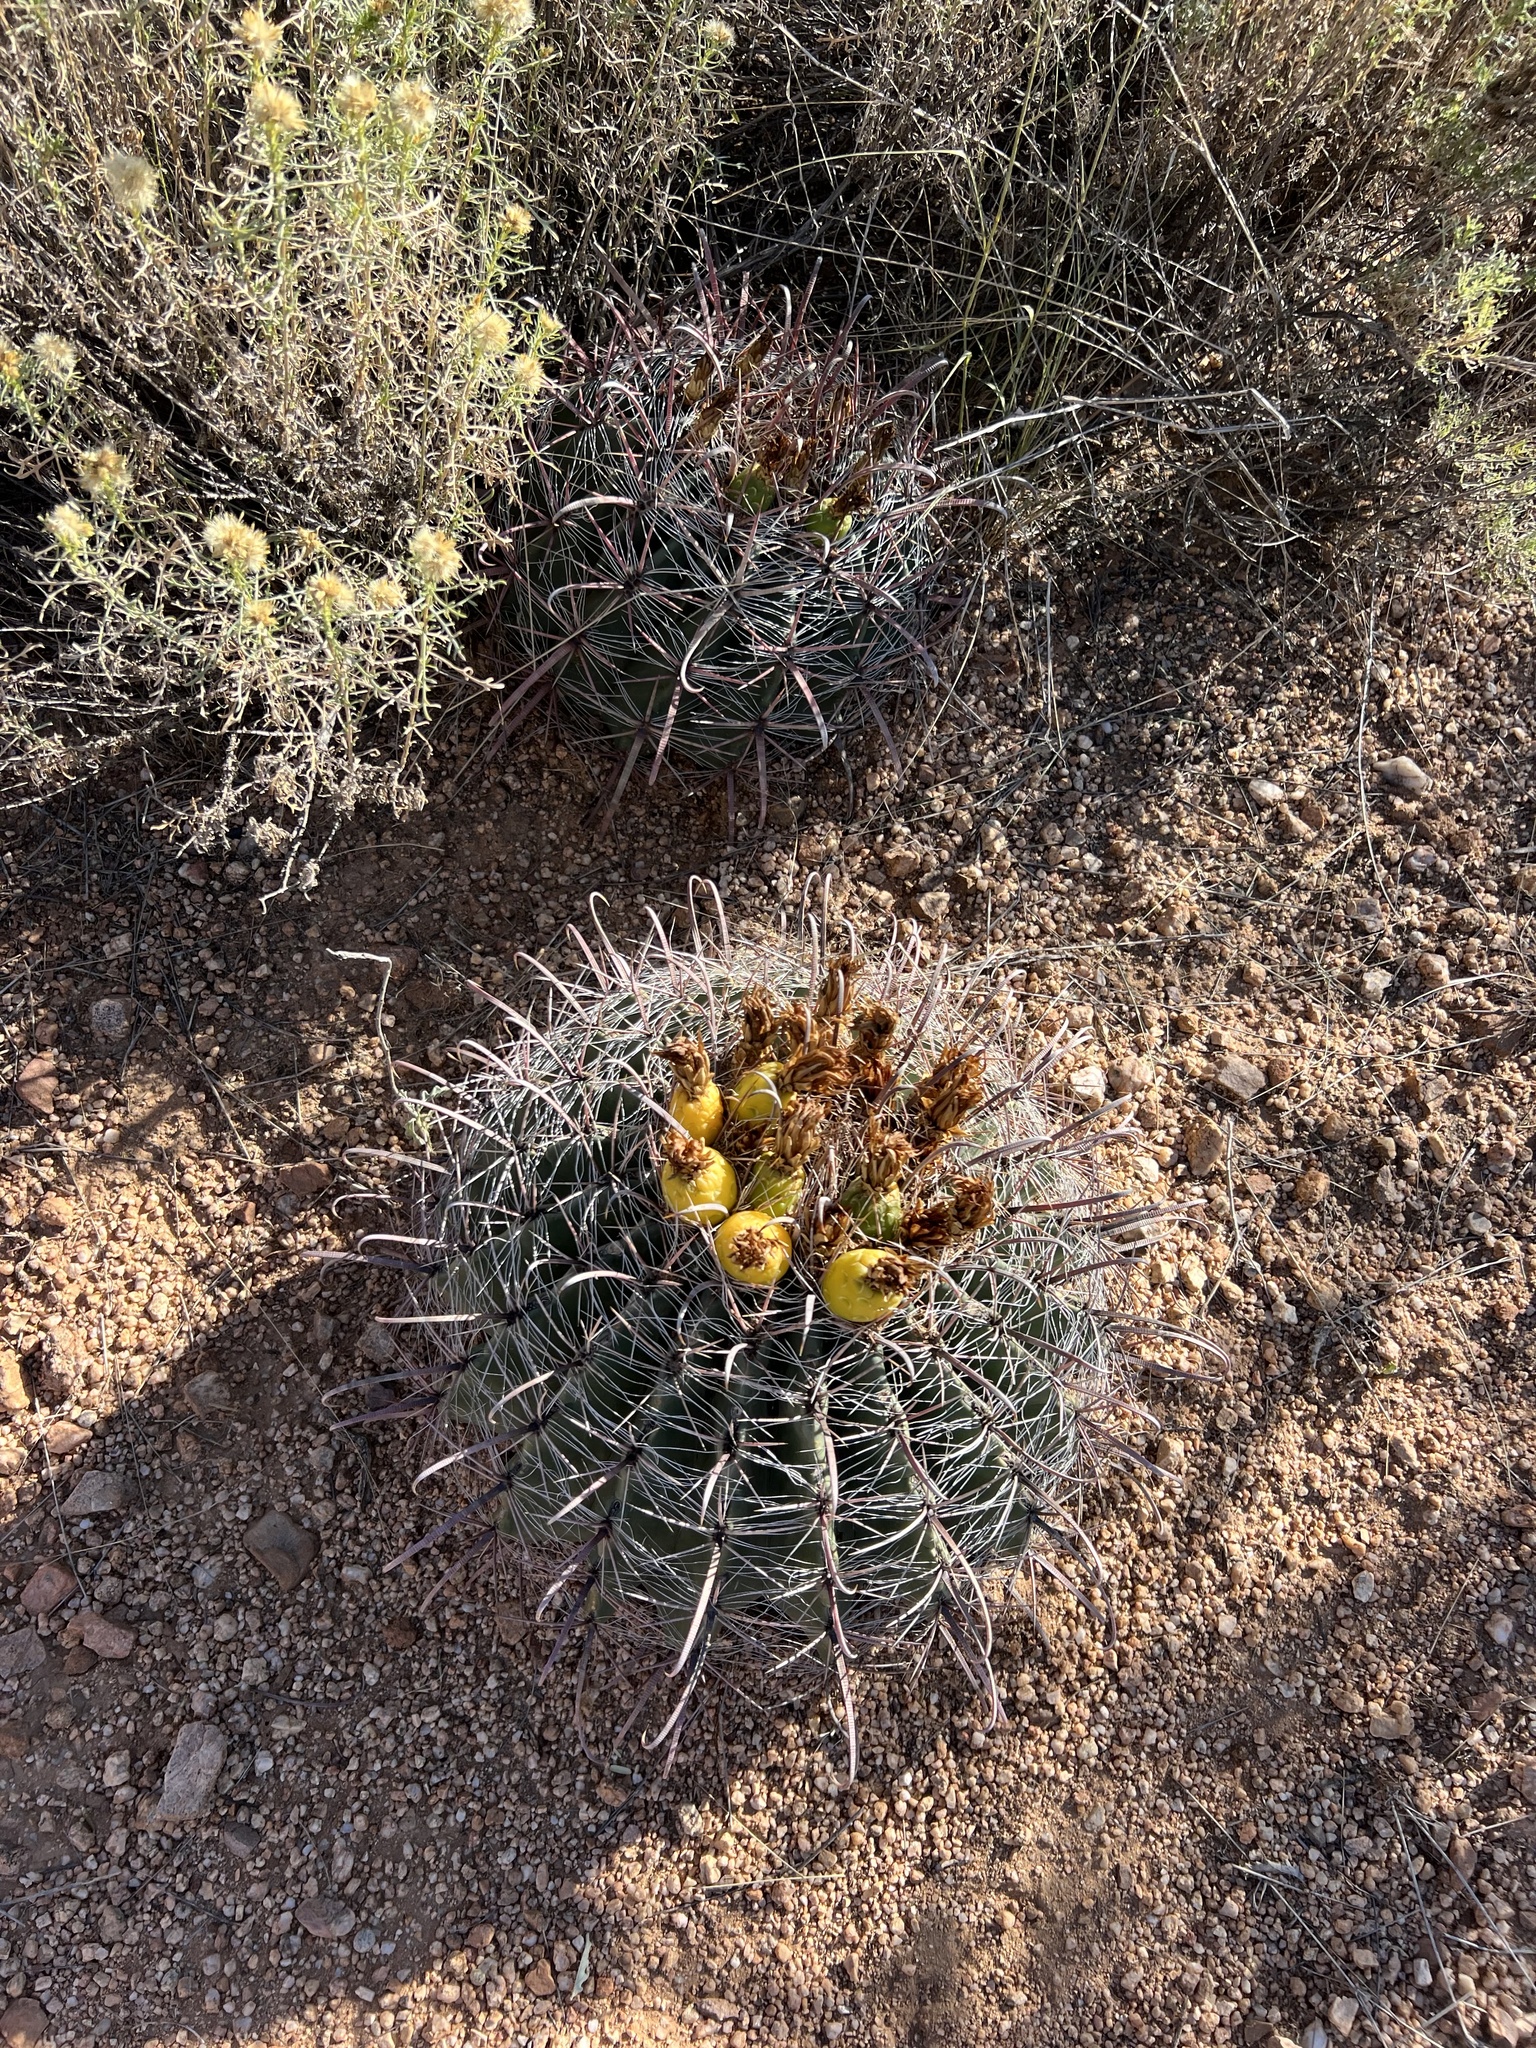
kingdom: Plantae
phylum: Tracheophyta
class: Magnoliopsida
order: Caryophyllales
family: Cactaceae
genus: Ferocactus
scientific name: Ferocactus wislizeni
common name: Candy barrel cactus
